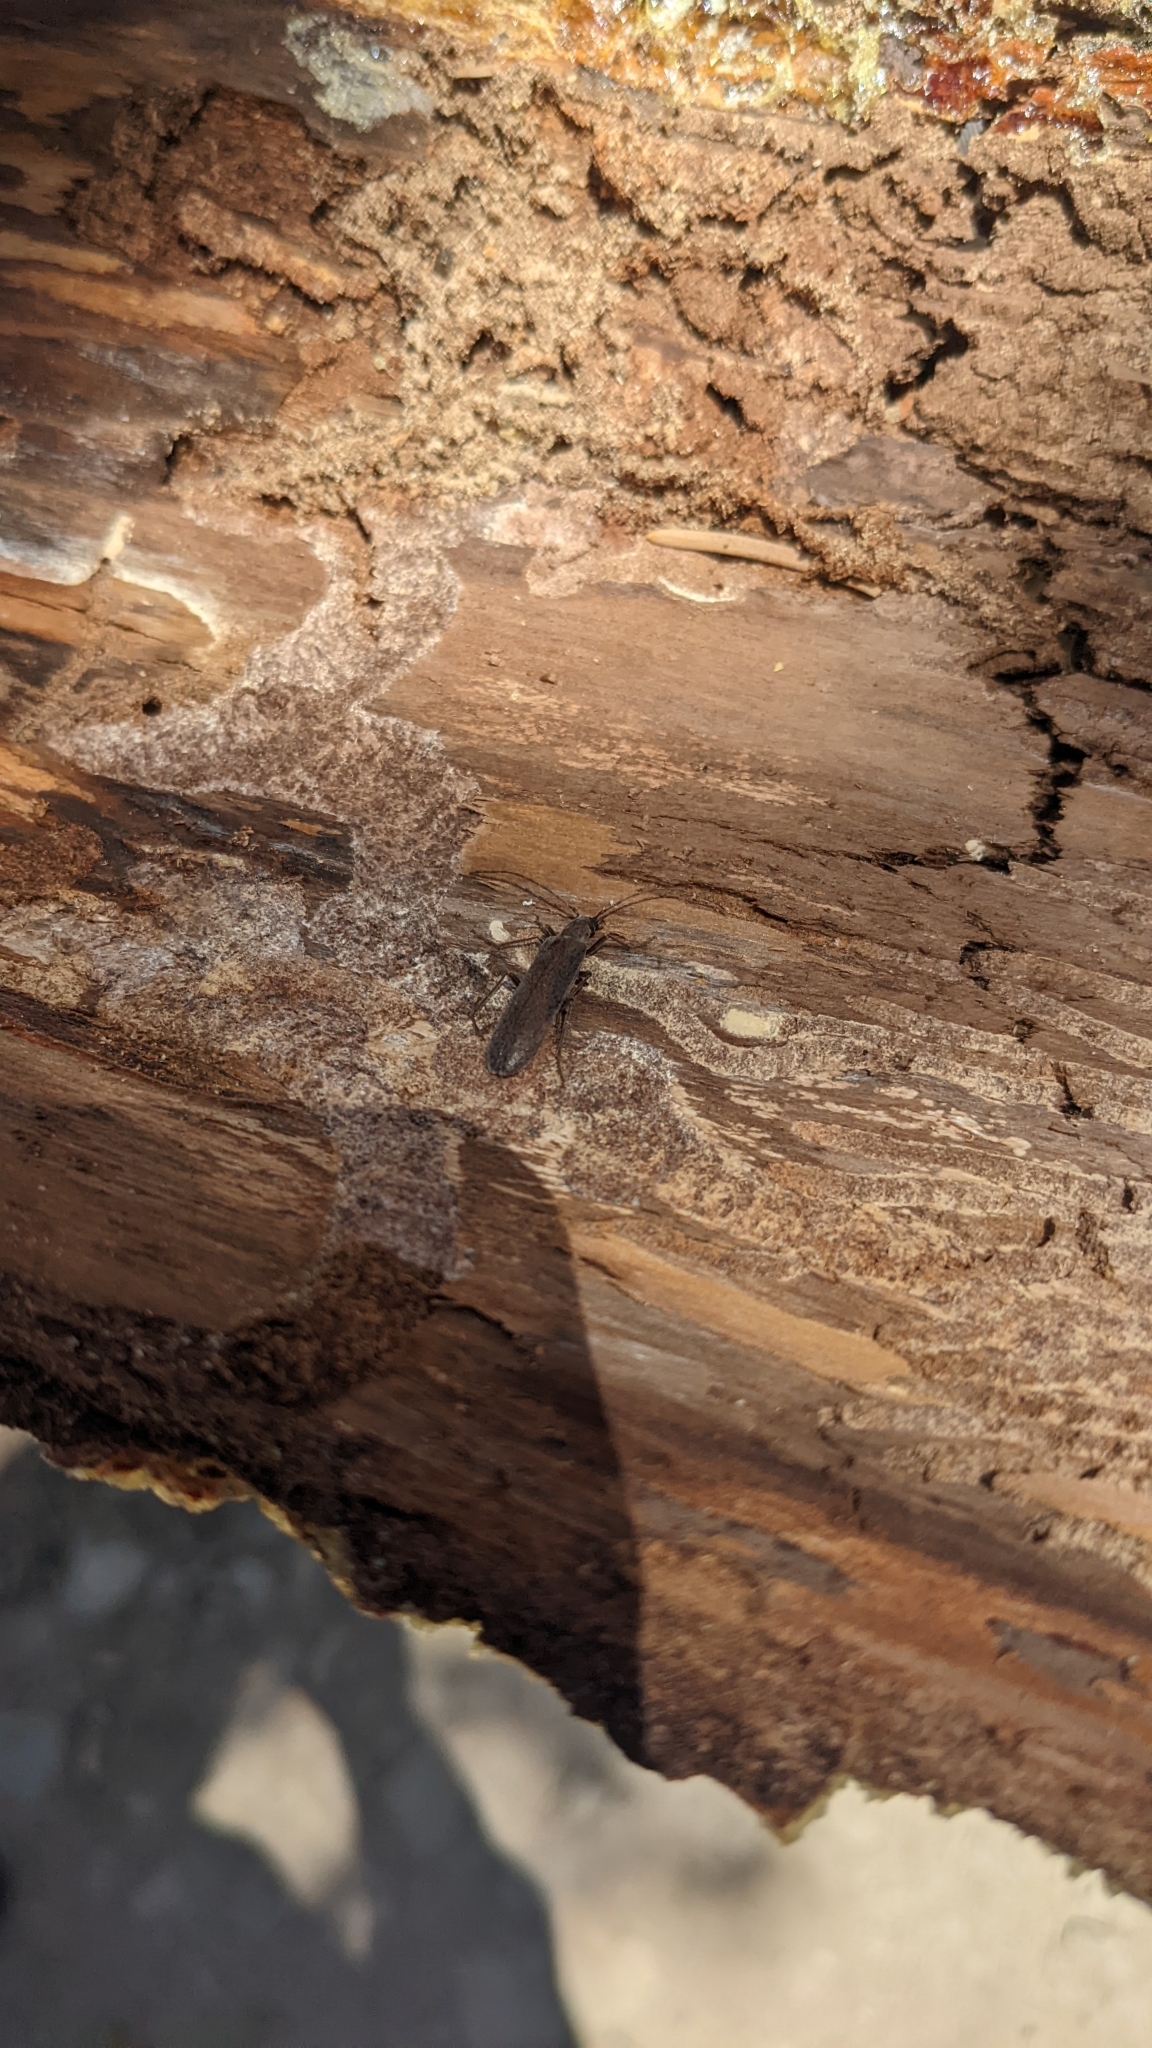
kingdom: Animalia
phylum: Arthropoda
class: Insecta
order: Coleoptera
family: Oedemeridae
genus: Calopus
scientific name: Calopus angustus
